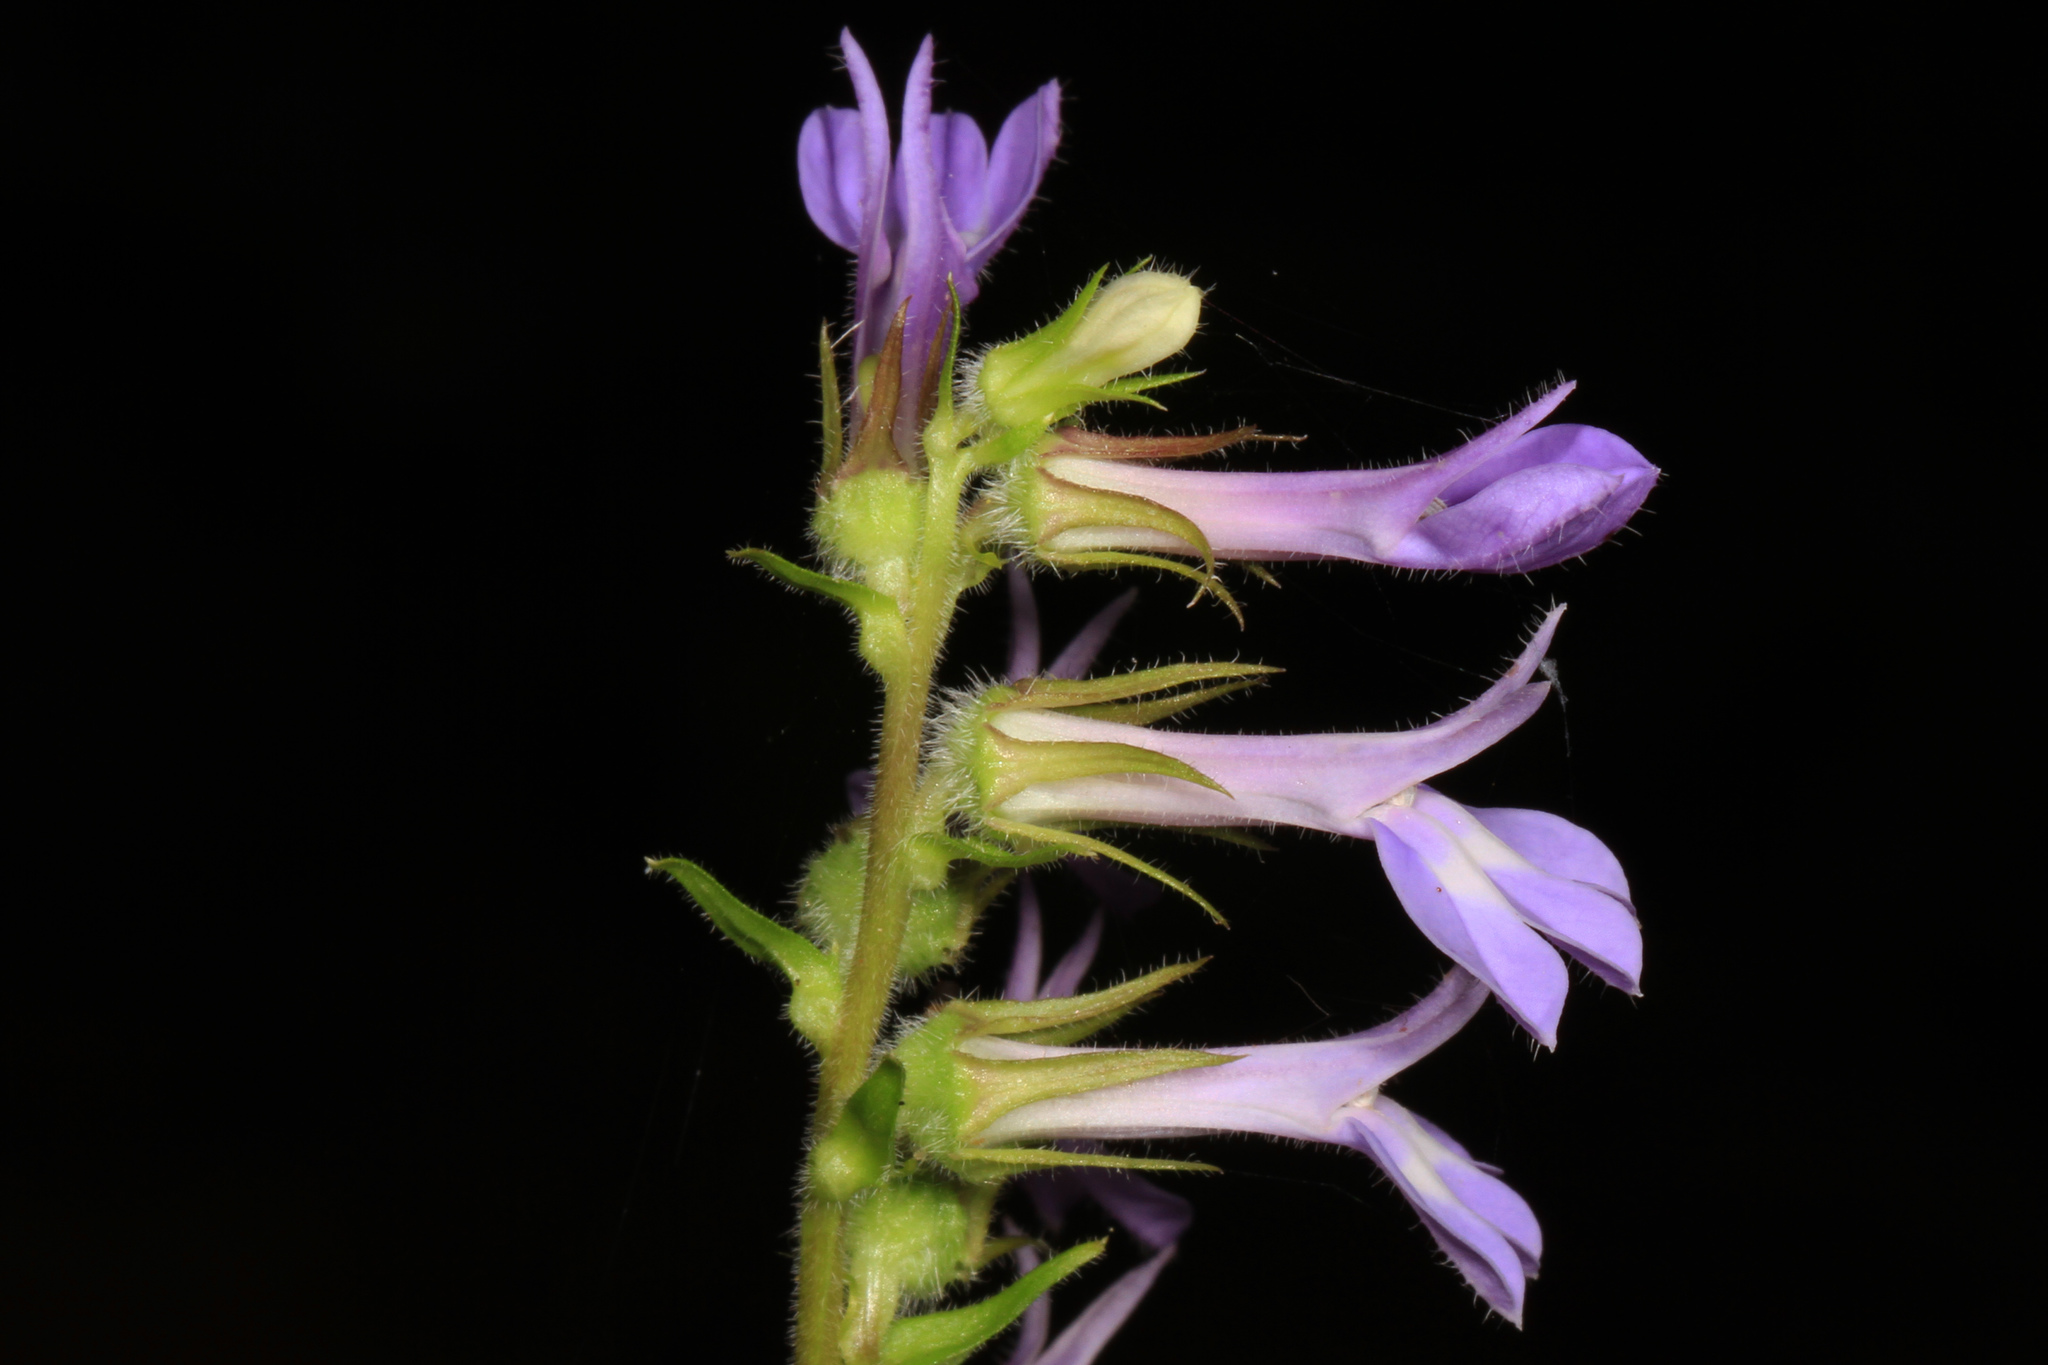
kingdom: Plantae
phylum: Tracheophyta
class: Magnoliopsida
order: Asterales
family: Campanulaceae
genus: Lobelia
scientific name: Lobelia puberula
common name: Purple dewdrop
